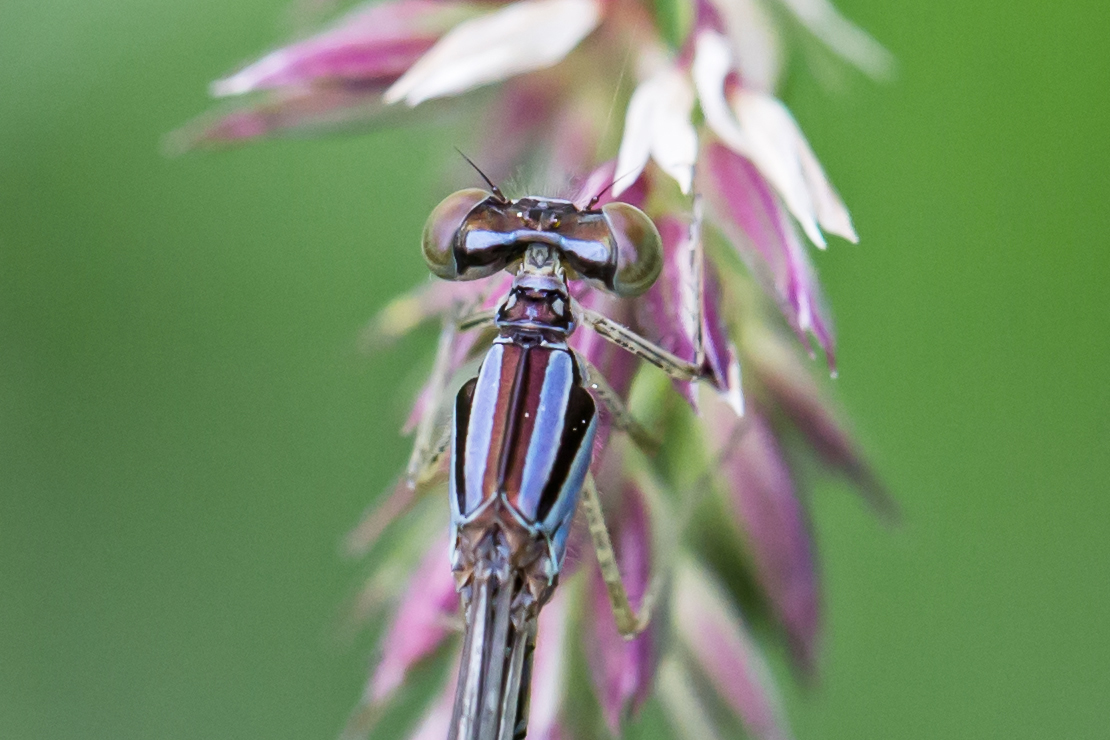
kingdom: Animalia
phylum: Arthropoda
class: Insecta
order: Odonata
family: Coenagrionidae
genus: Enallagma
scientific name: Enallagma signatum
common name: Orange bluet
